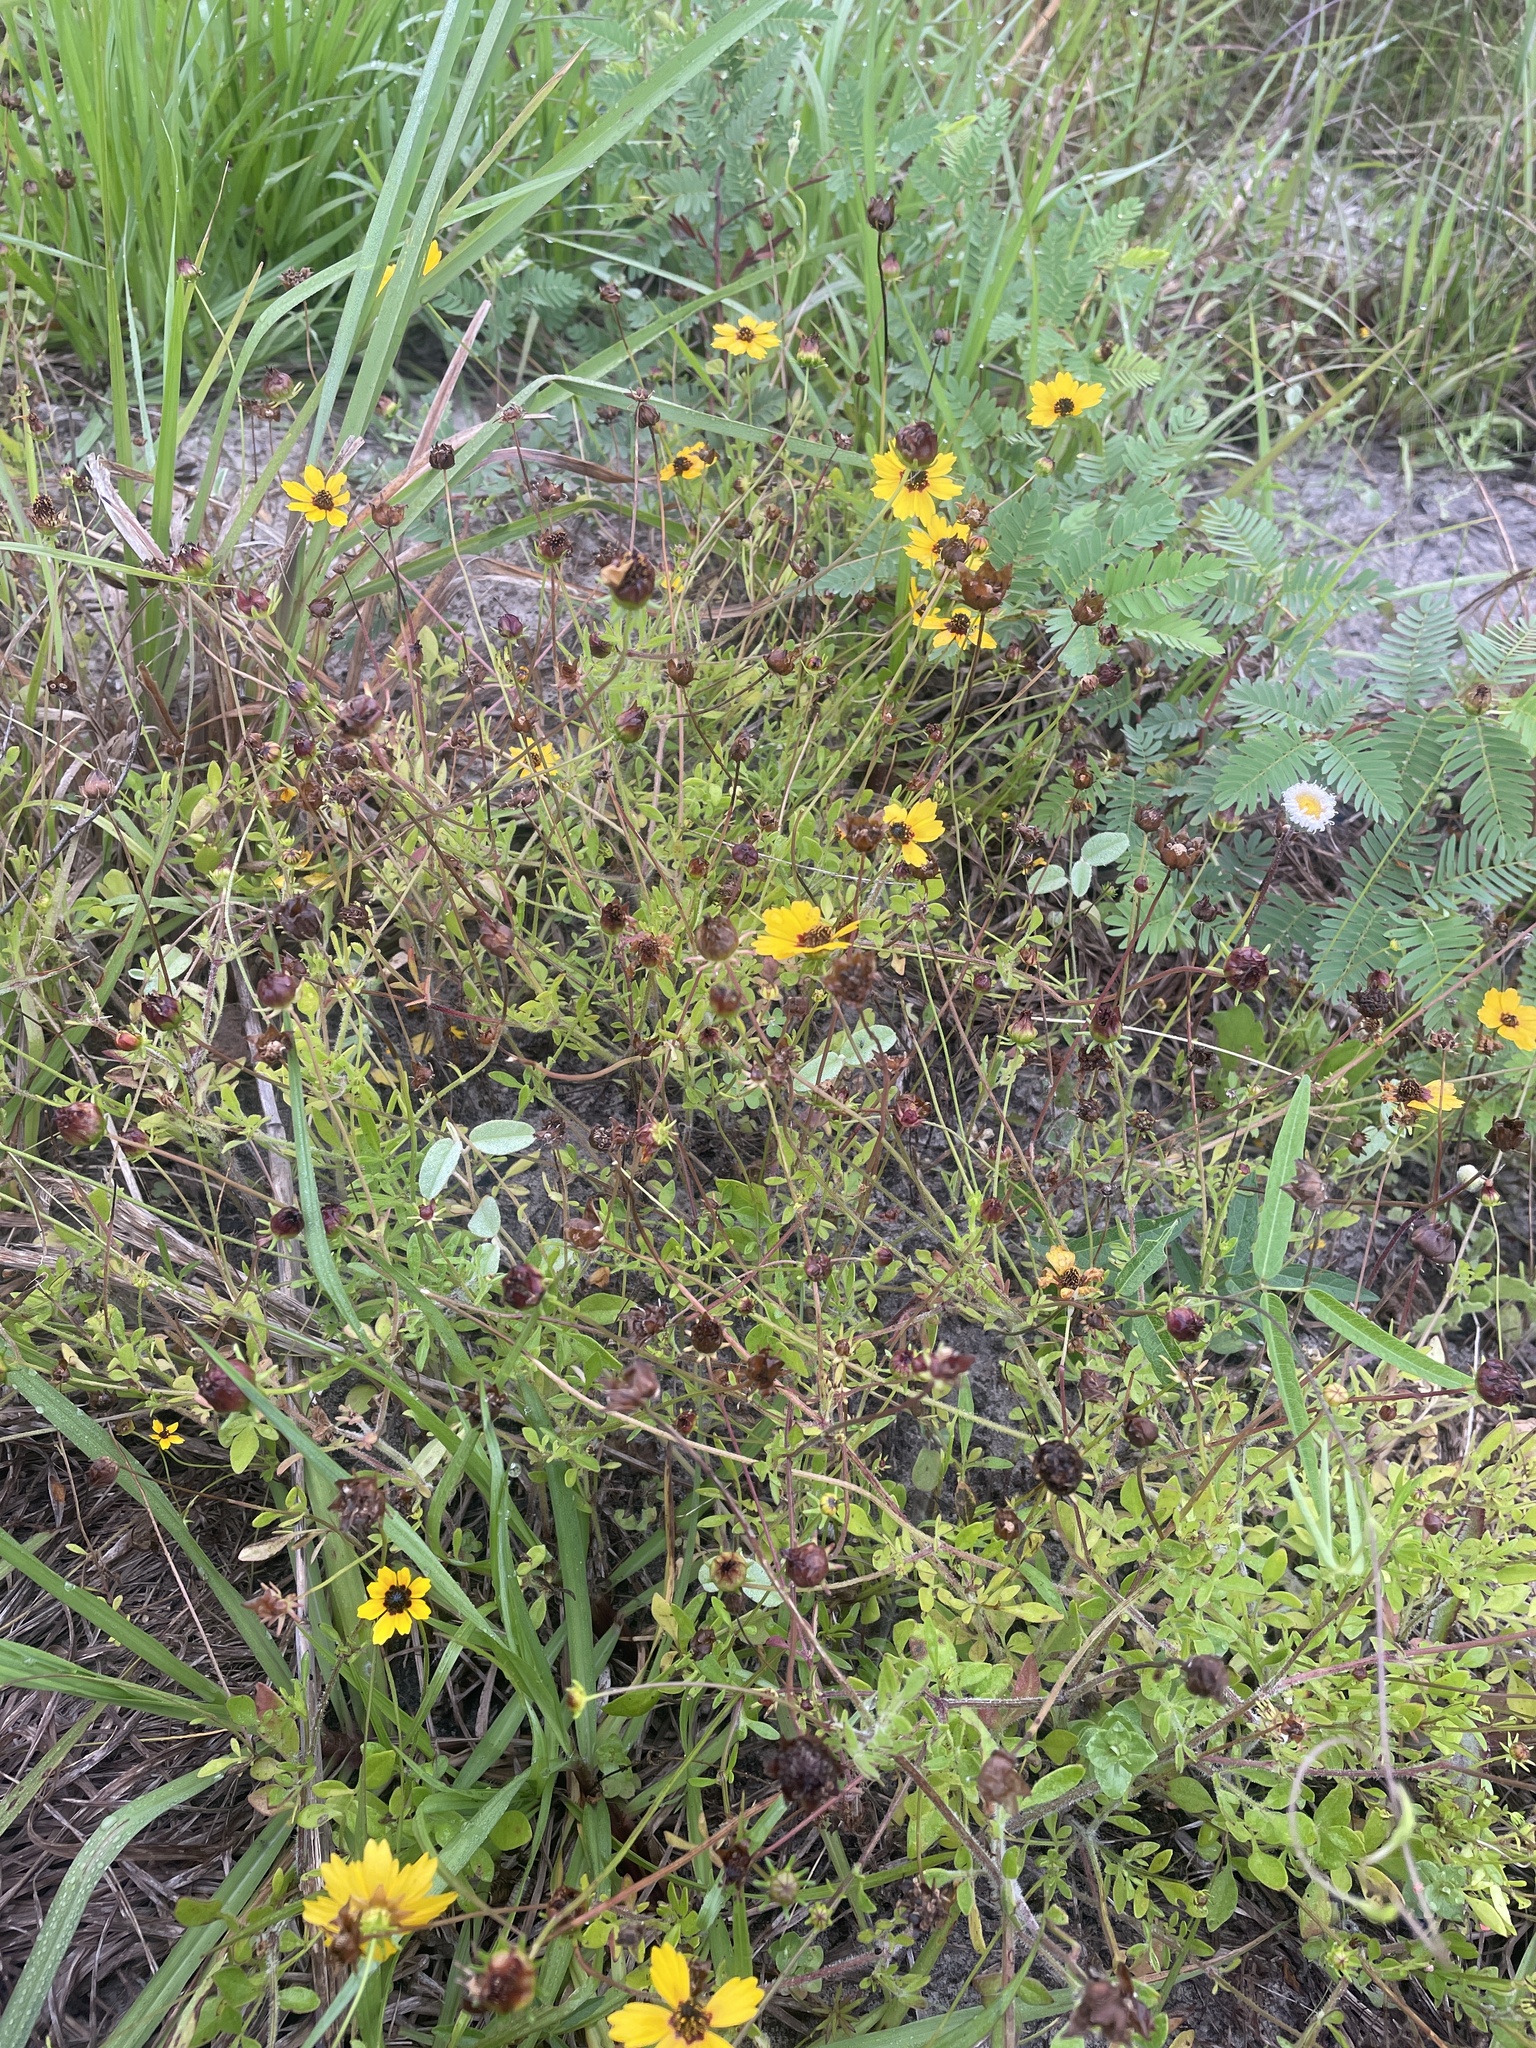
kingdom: Plantae
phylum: Tracheophyta
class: Magnoliopsida
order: Asterales
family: Asteraceae
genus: Coreopsis
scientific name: Coreopsis basalis
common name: Golden-mane coreopsis
